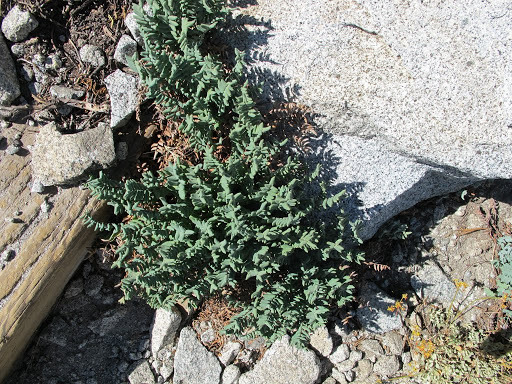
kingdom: Plantae
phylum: Tracheophyta
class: Polypodiopsida
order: Polypodiales
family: Pteridaceae
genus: Pellaea
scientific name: Pellaea bridgesii
